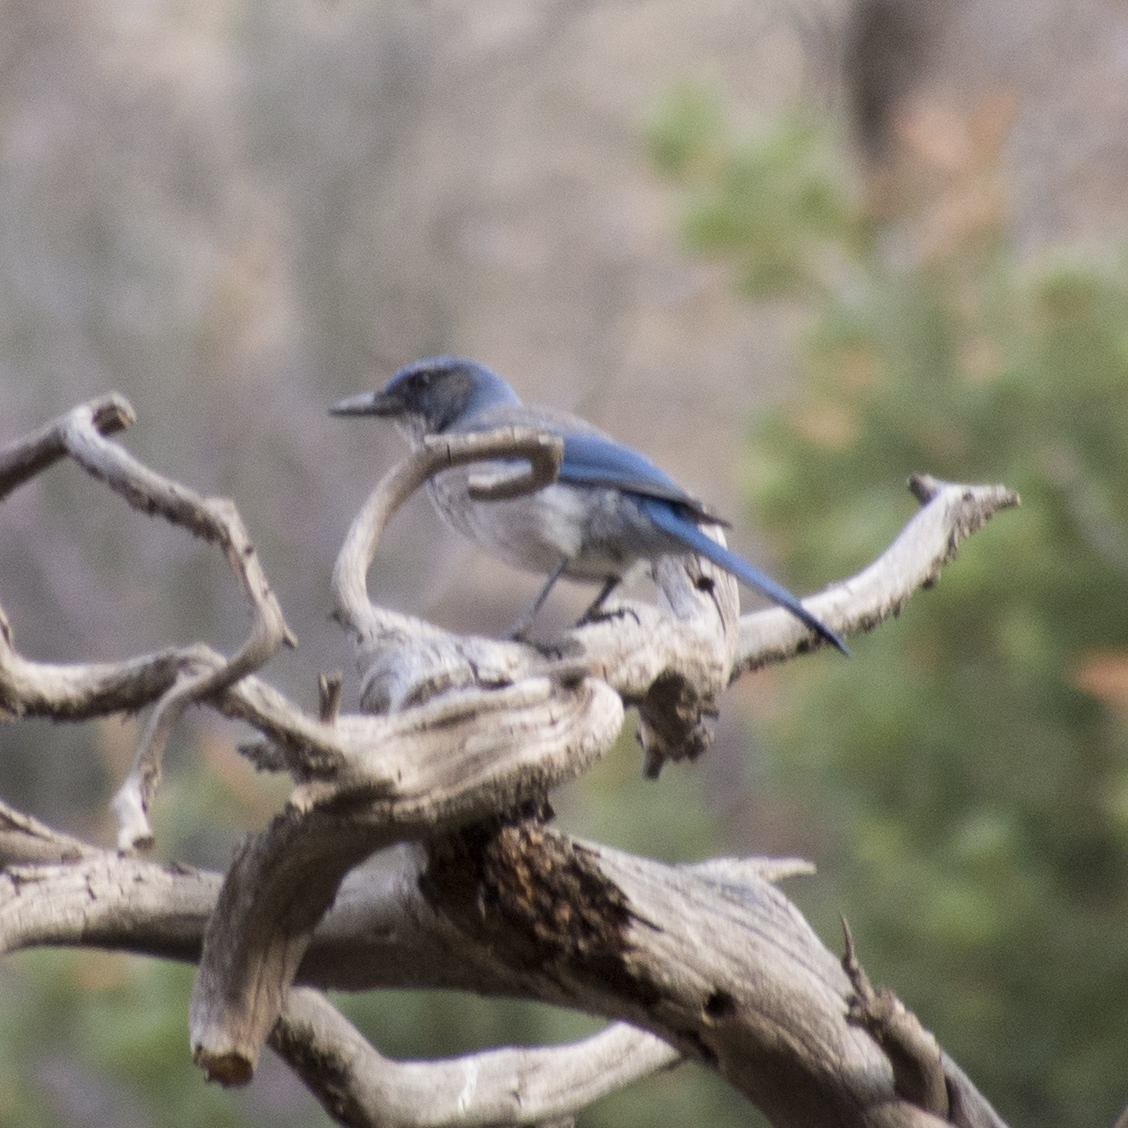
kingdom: Animalia
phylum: Chordata
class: Aves
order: Passeriformes
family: Corvidae
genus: Aphelocoma
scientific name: Aphelocoma woodhouseii
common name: Woodhouse's scrub-jay
